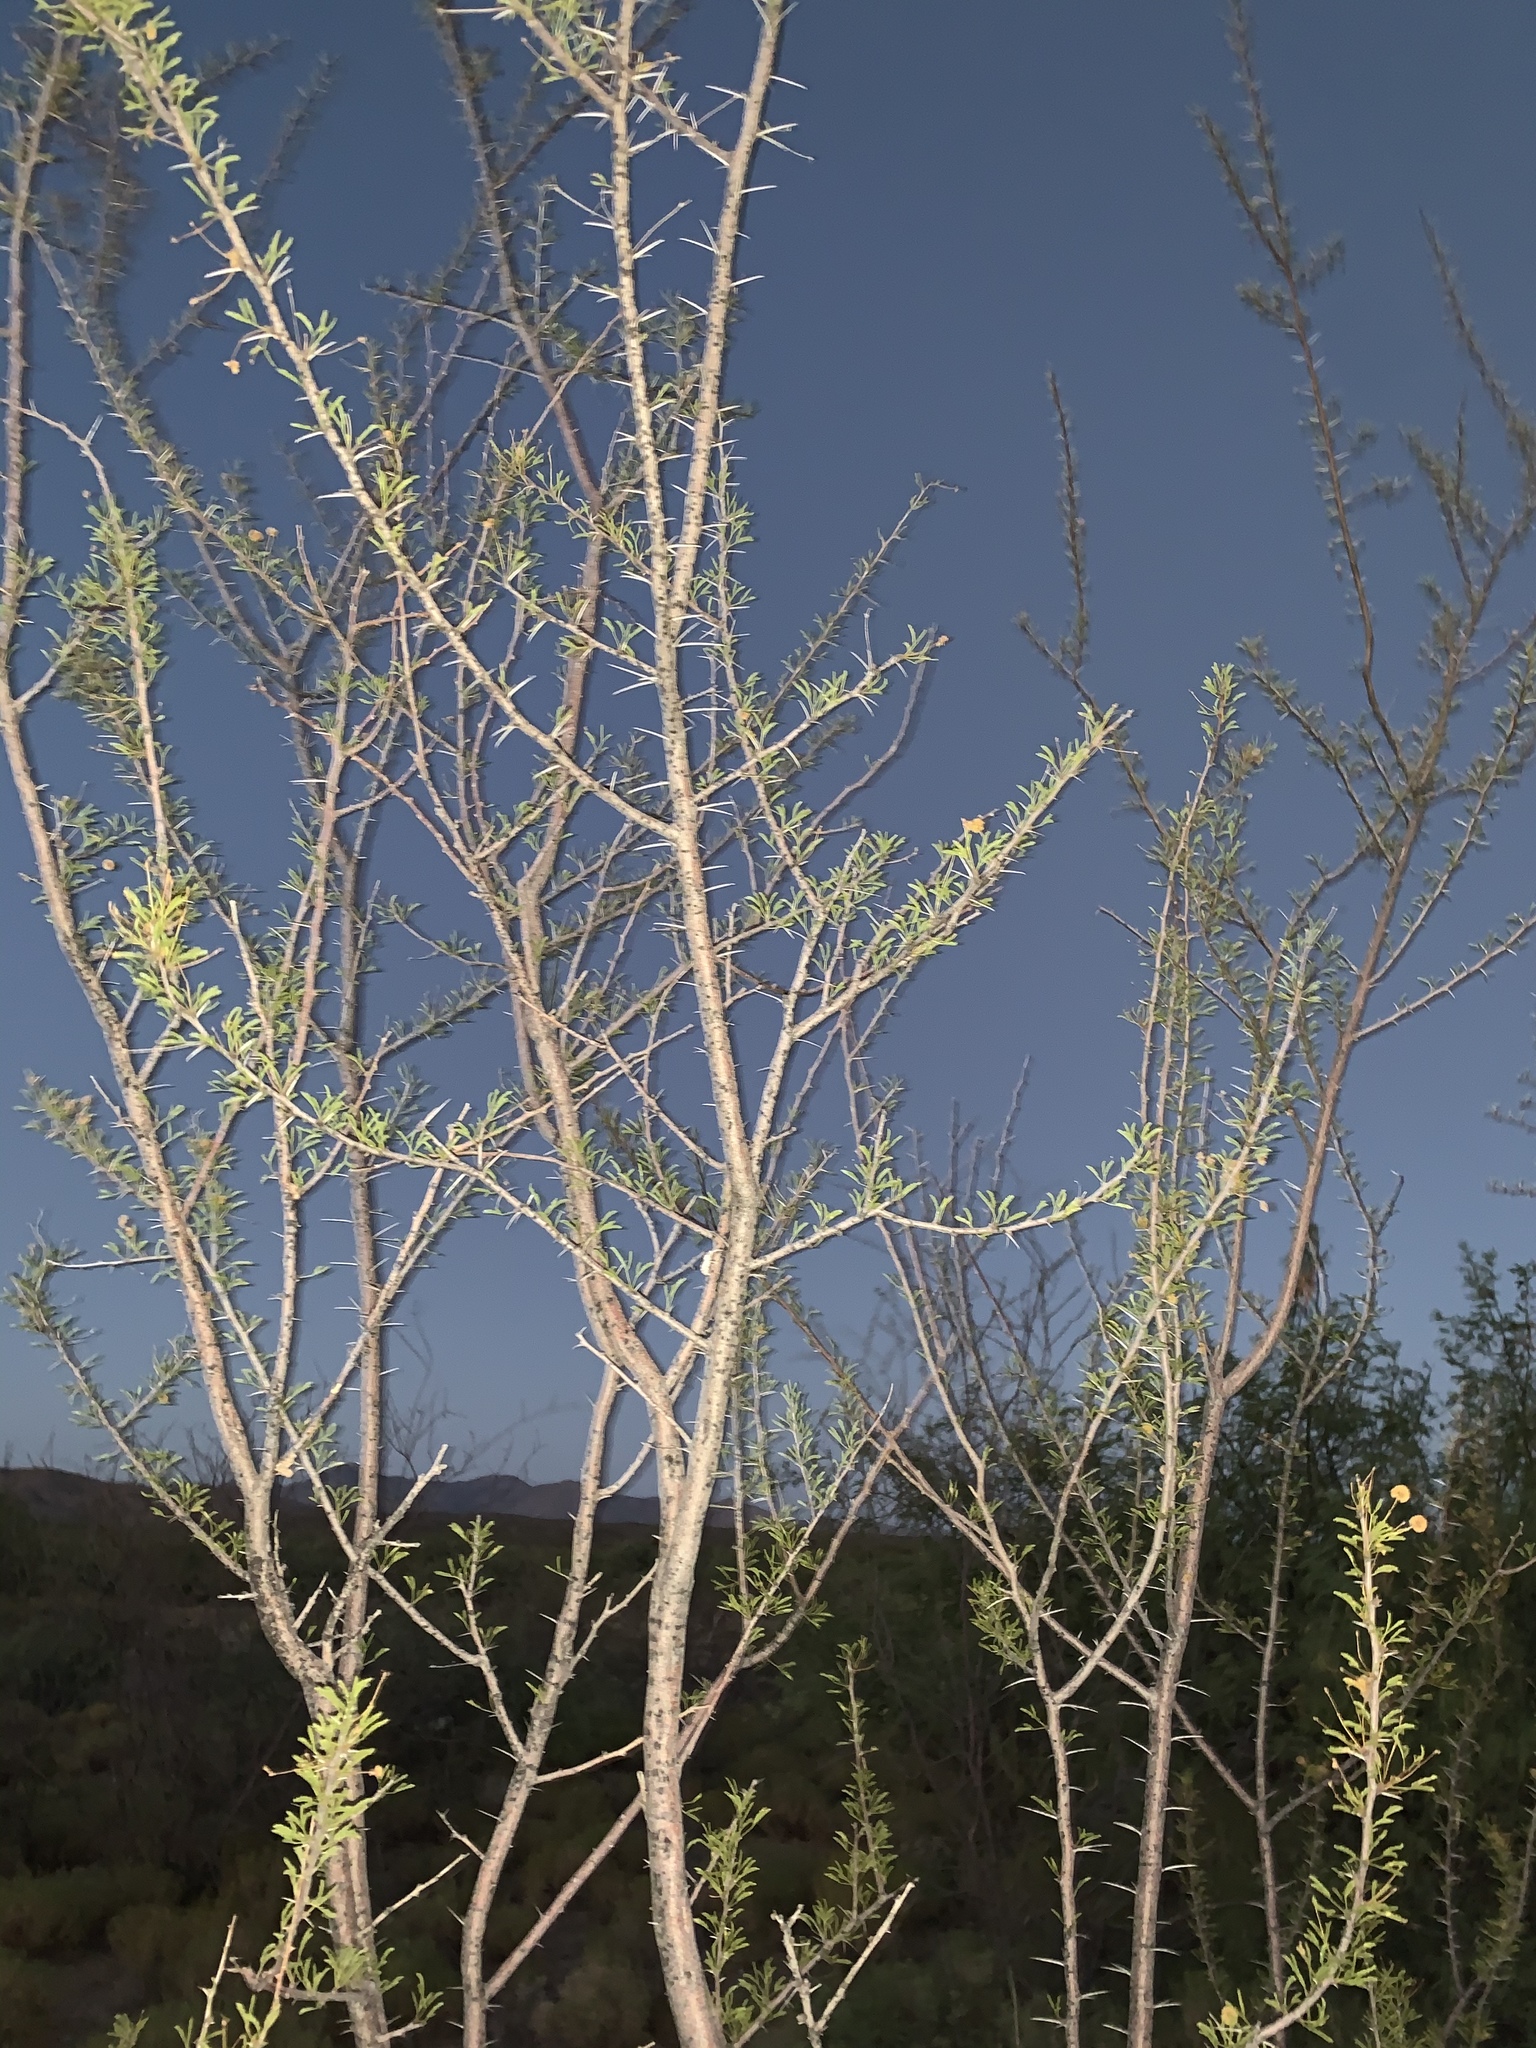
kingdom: Plantae
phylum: Tracheophyta
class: Magnoliopsida
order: Fabales
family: Fabaceae
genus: Vachellia
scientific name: Vachellia constricta
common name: Mescat acacia
